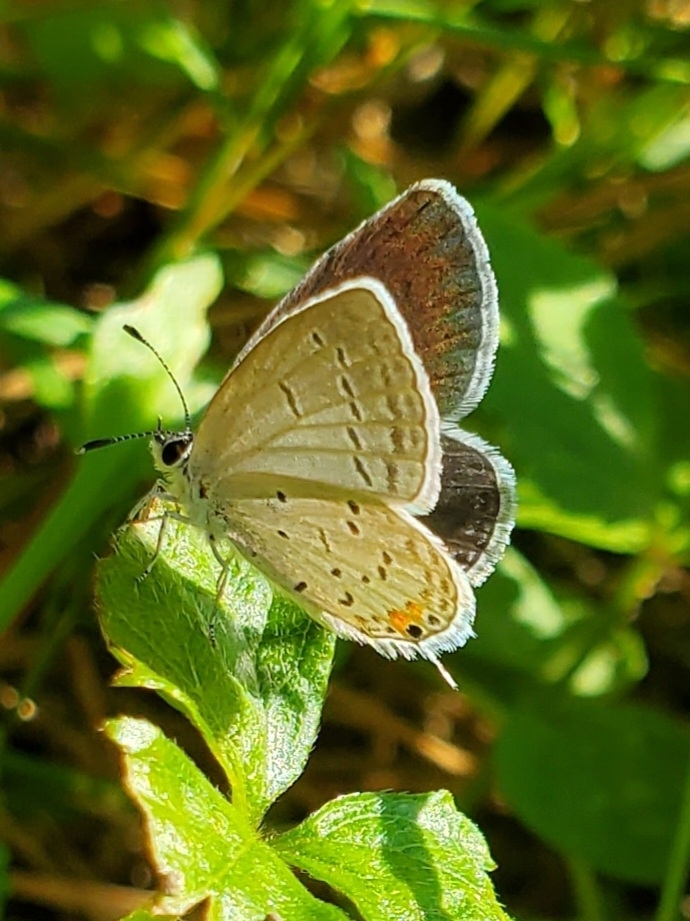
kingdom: Animalia
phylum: Arthropoda
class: Insecta
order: Lepidoptera
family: Lycaenidae
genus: Elkalyce
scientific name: Elkalyce comyntas
